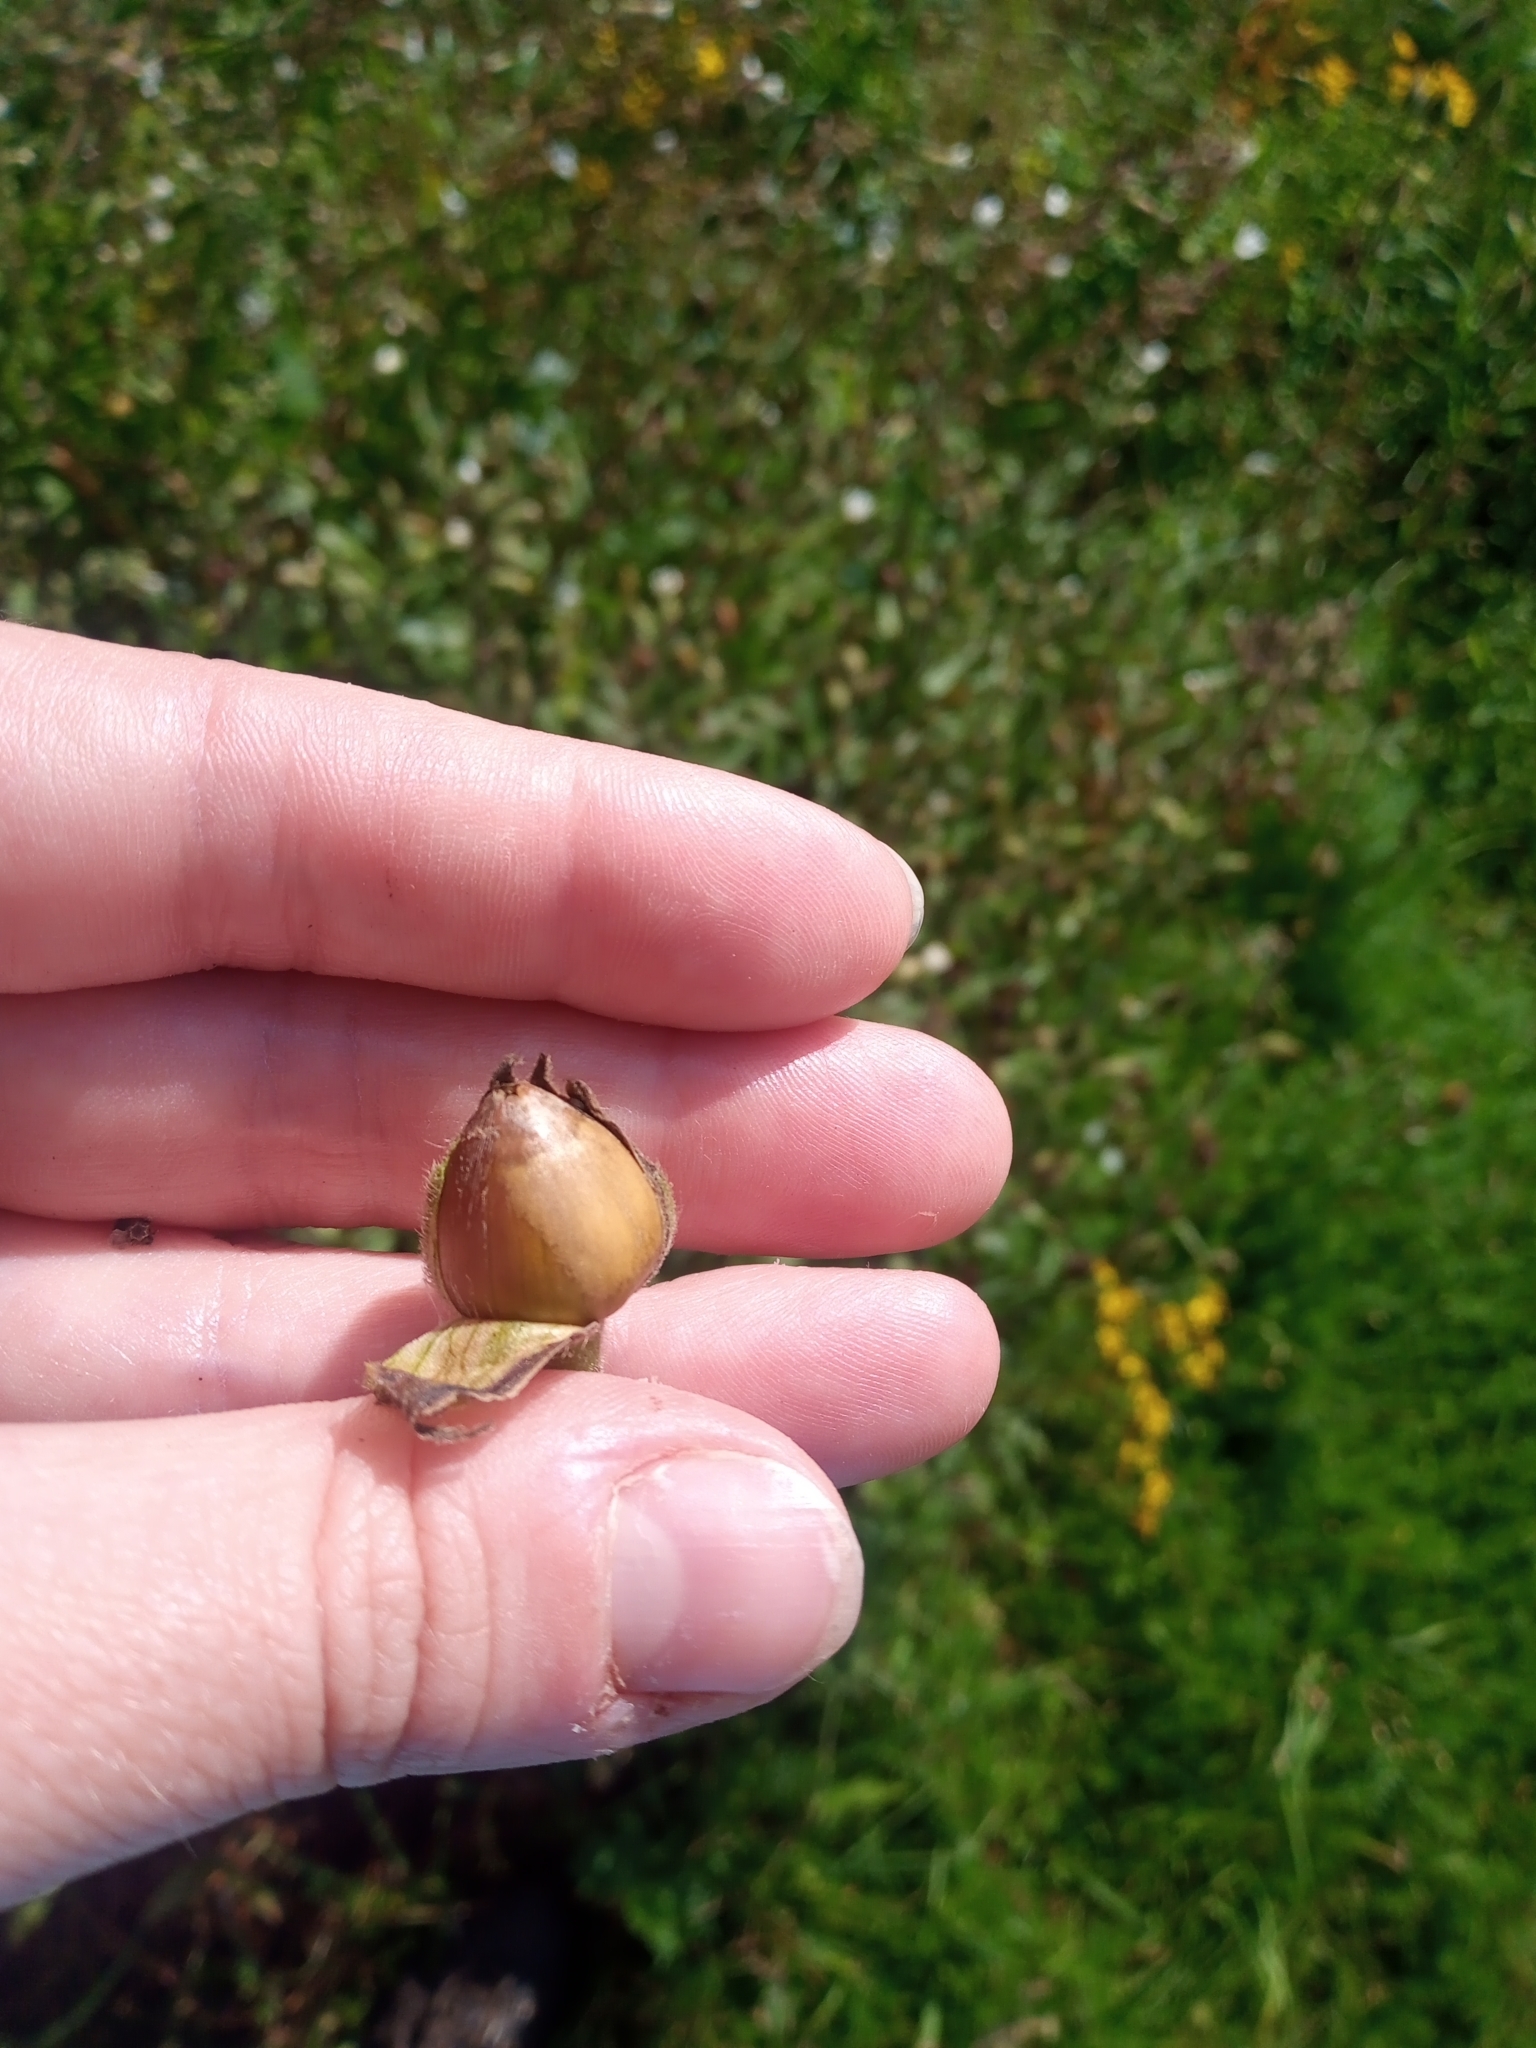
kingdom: Plantae
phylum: Tracheophyta
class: Magnoliopsida
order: Caryophyllales
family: Caryophyllaceae
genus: Silene
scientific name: Silene latifolia
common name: White campion
